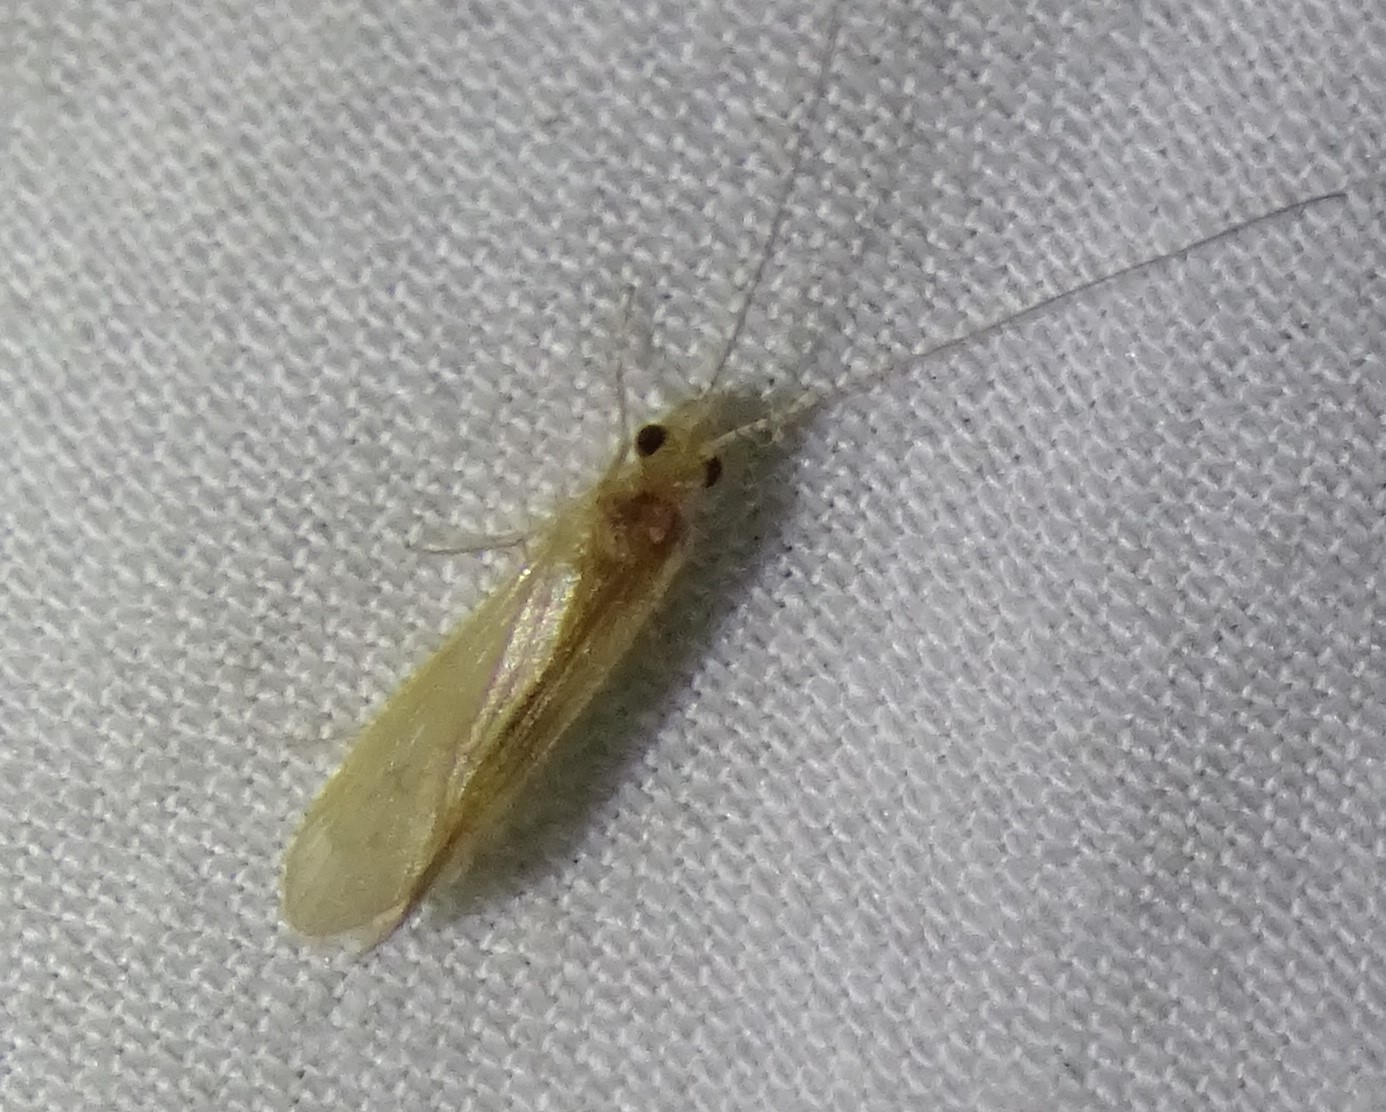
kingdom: Animalia
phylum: Arthropoda
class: Insecta
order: Trichoptera
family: Hydropsychidae
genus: Potamyia
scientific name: Potamyia flava
